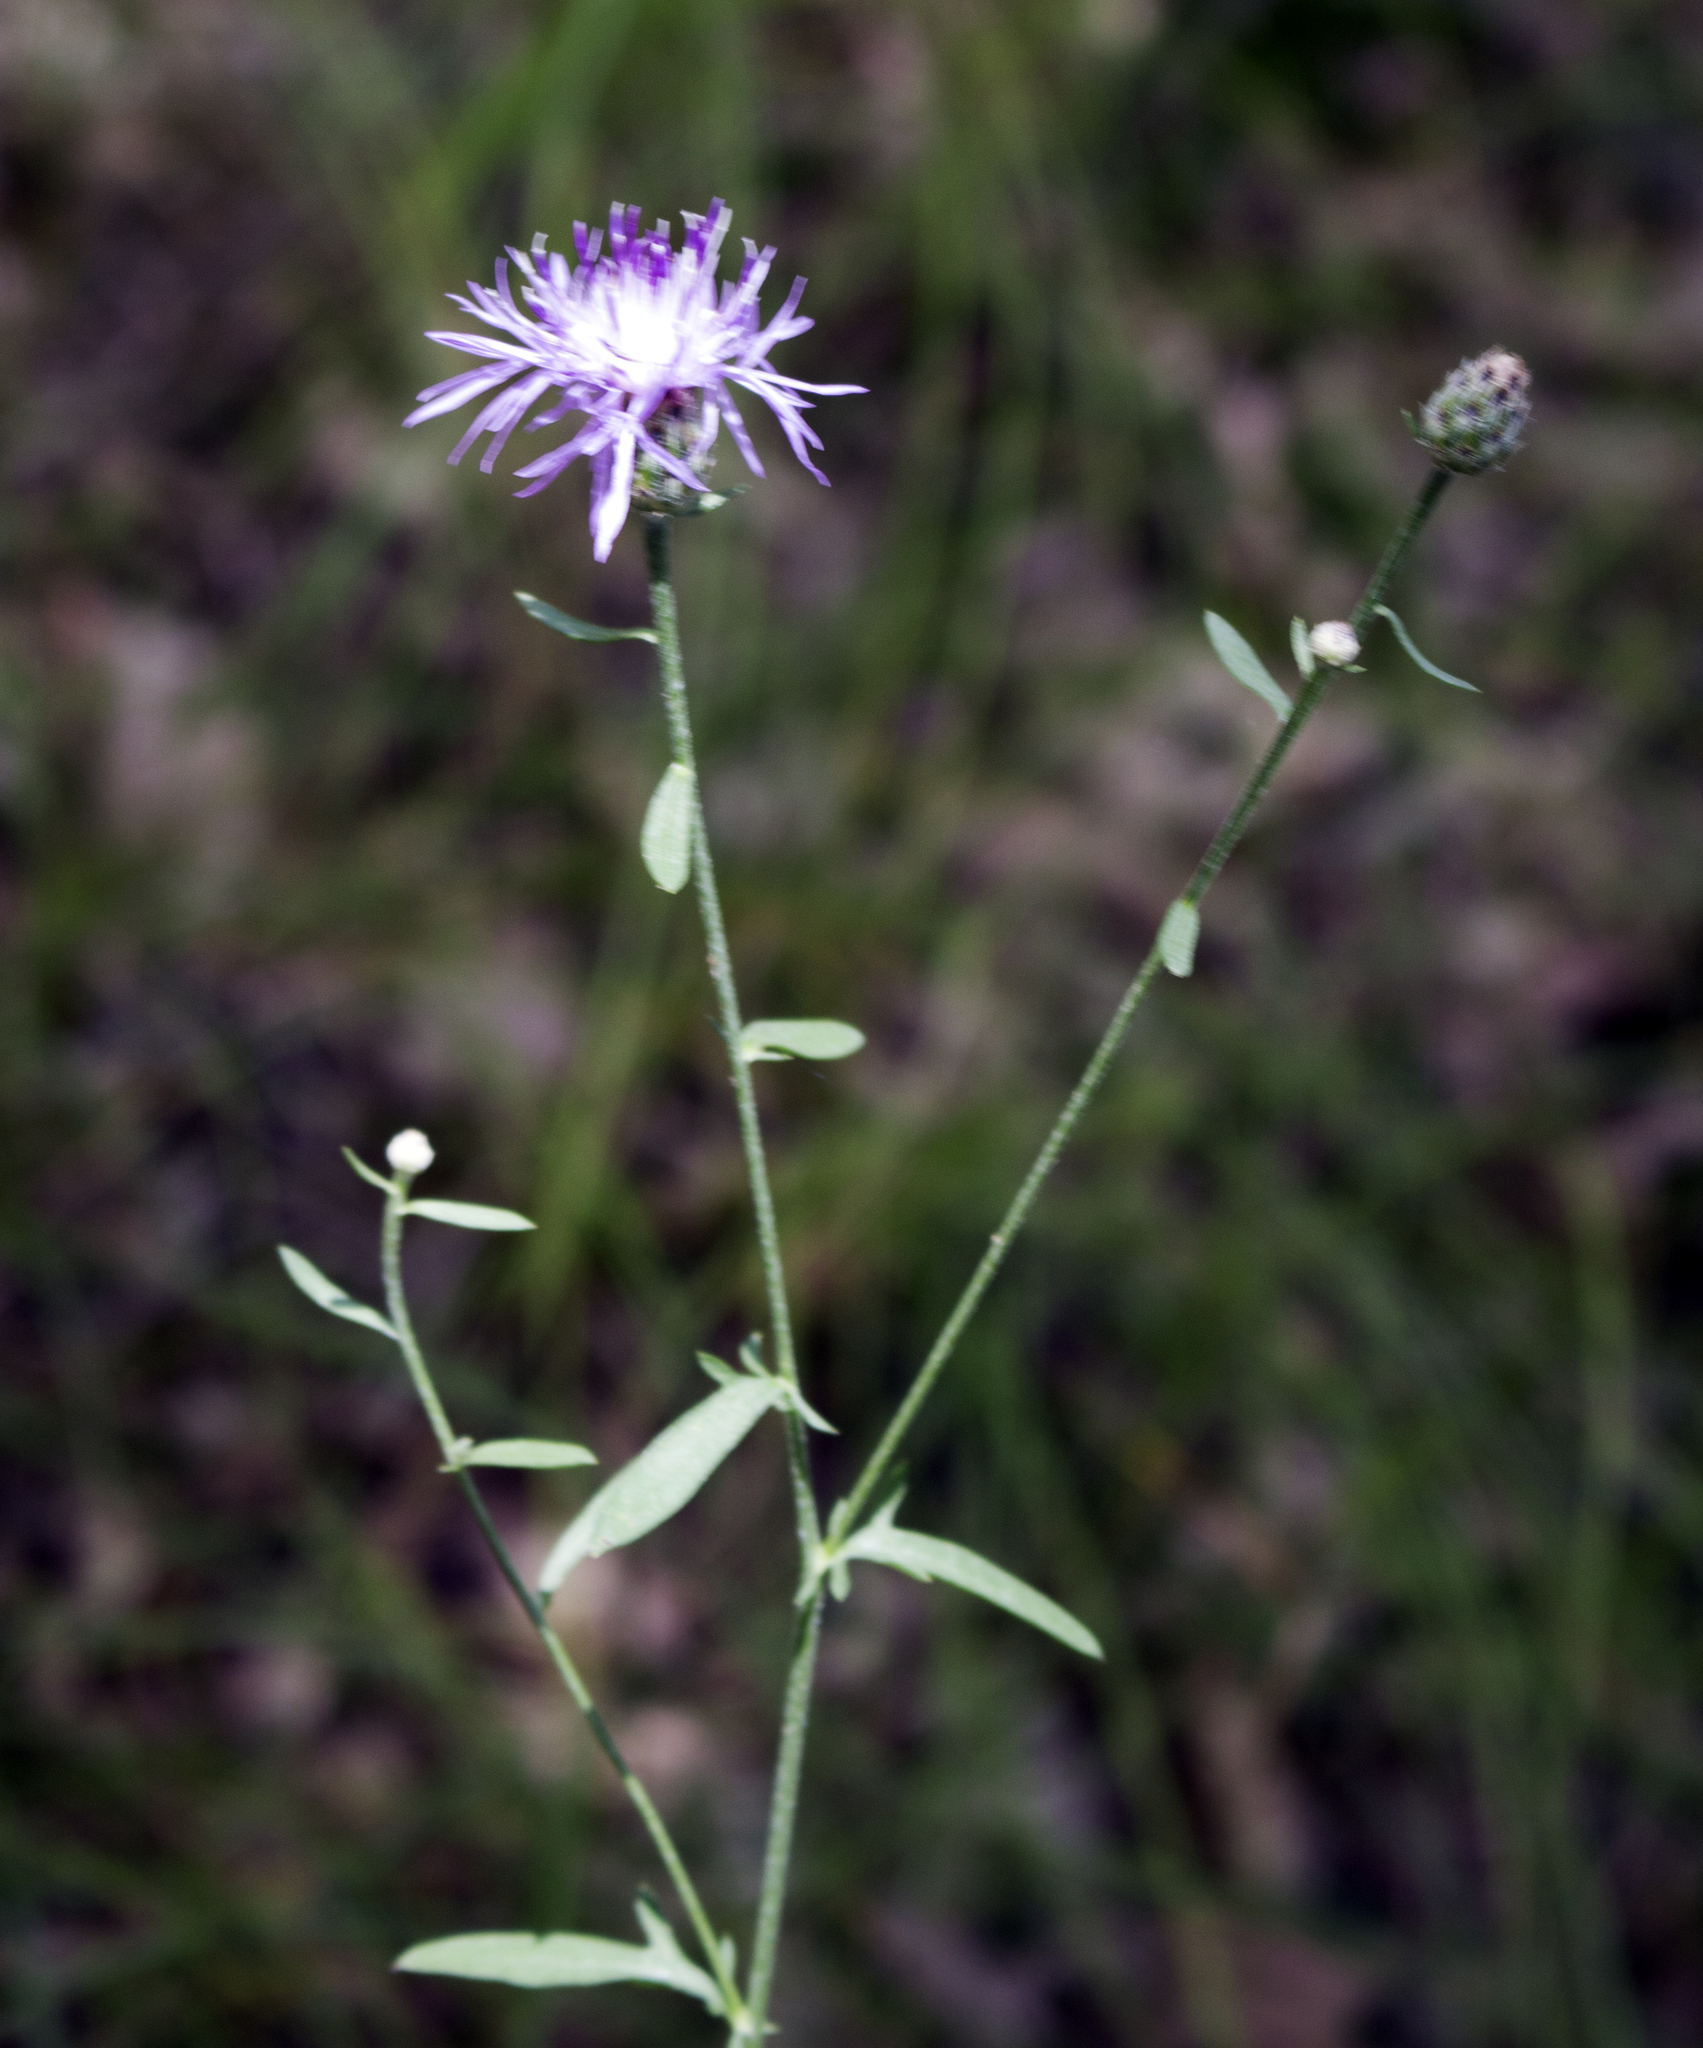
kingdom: Plantae
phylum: Tracheophyta
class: Magnoliopsida
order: Asterales
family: Asteraceae
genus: Centaurea
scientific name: Centaurea stoebe
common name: Spotted knapweed
